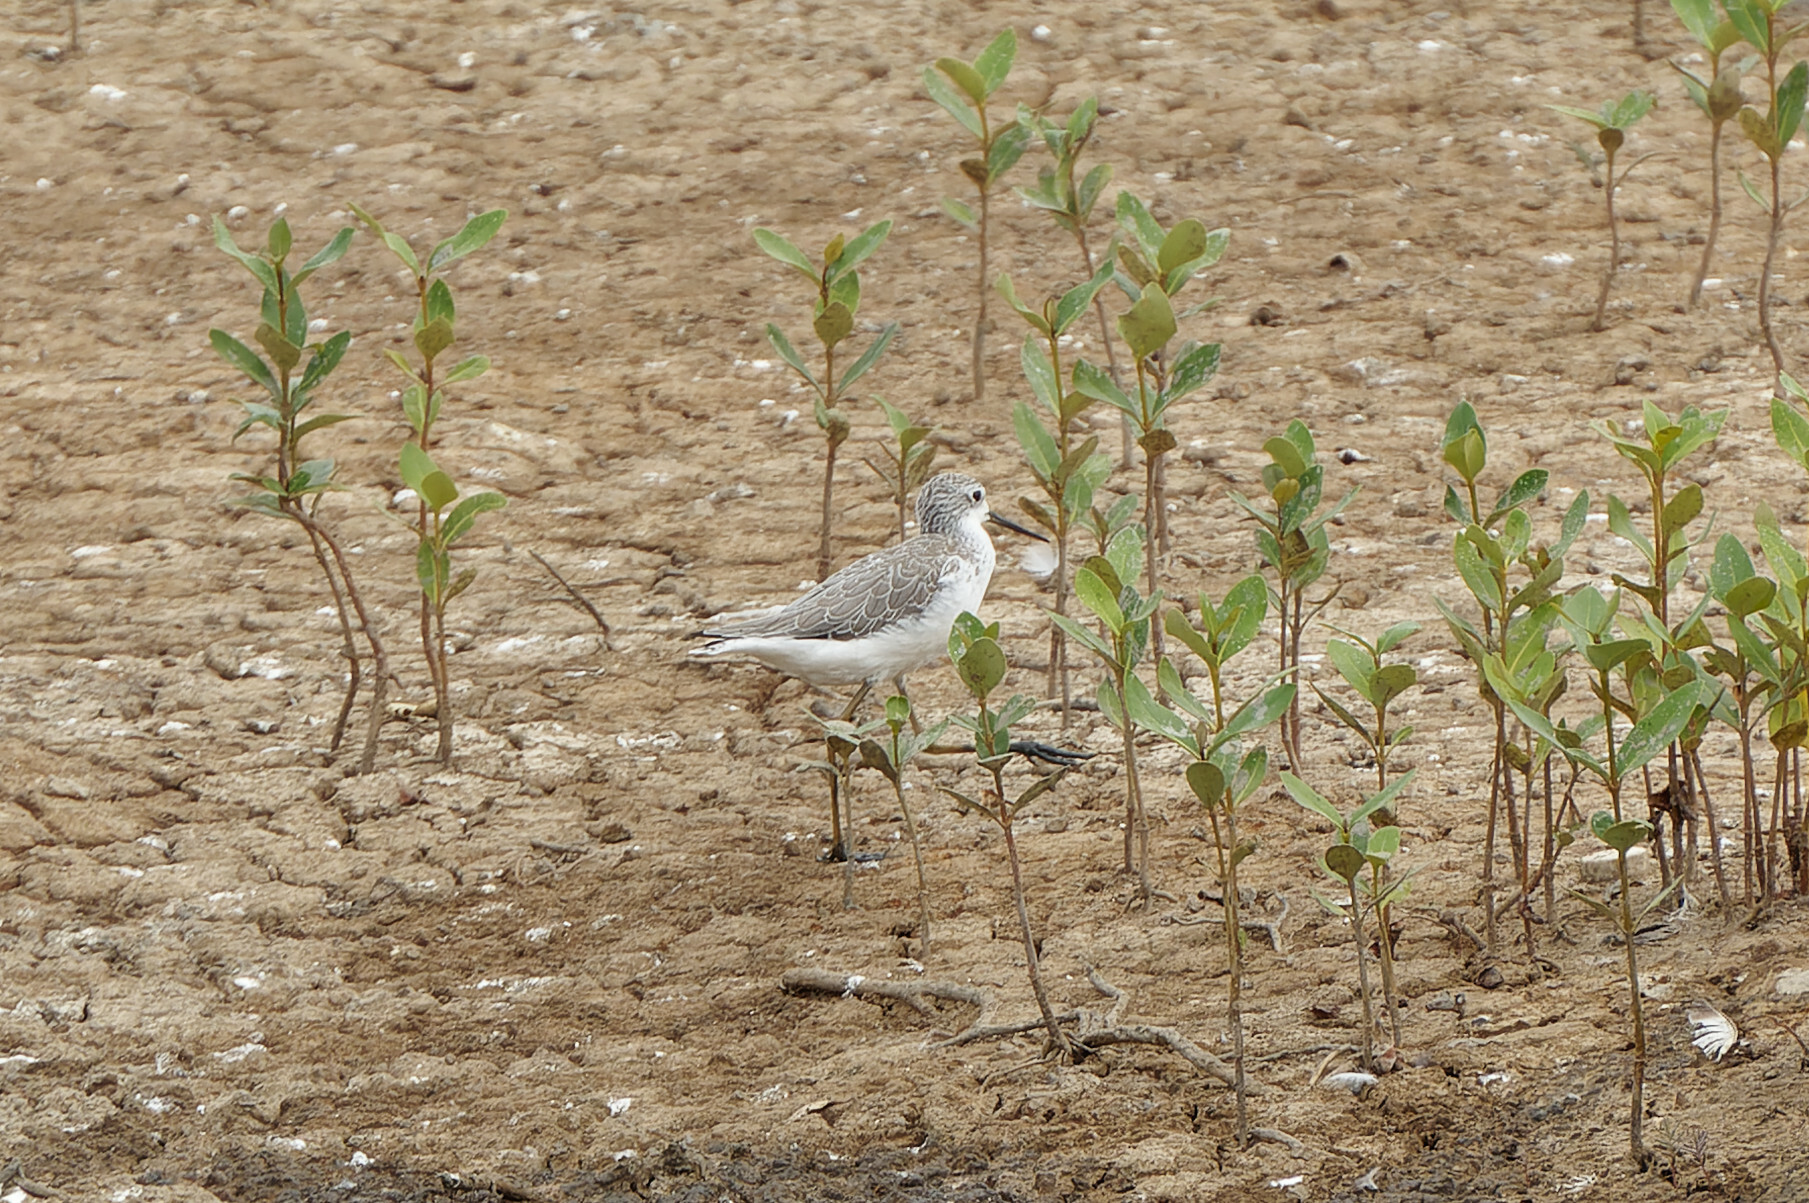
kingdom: Animalia
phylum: Chordata
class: Aves
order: Charadriiformes
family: Scolopacidae
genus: Tringa
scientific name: Tringa stagnatilis
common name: Marsh sandpiper
